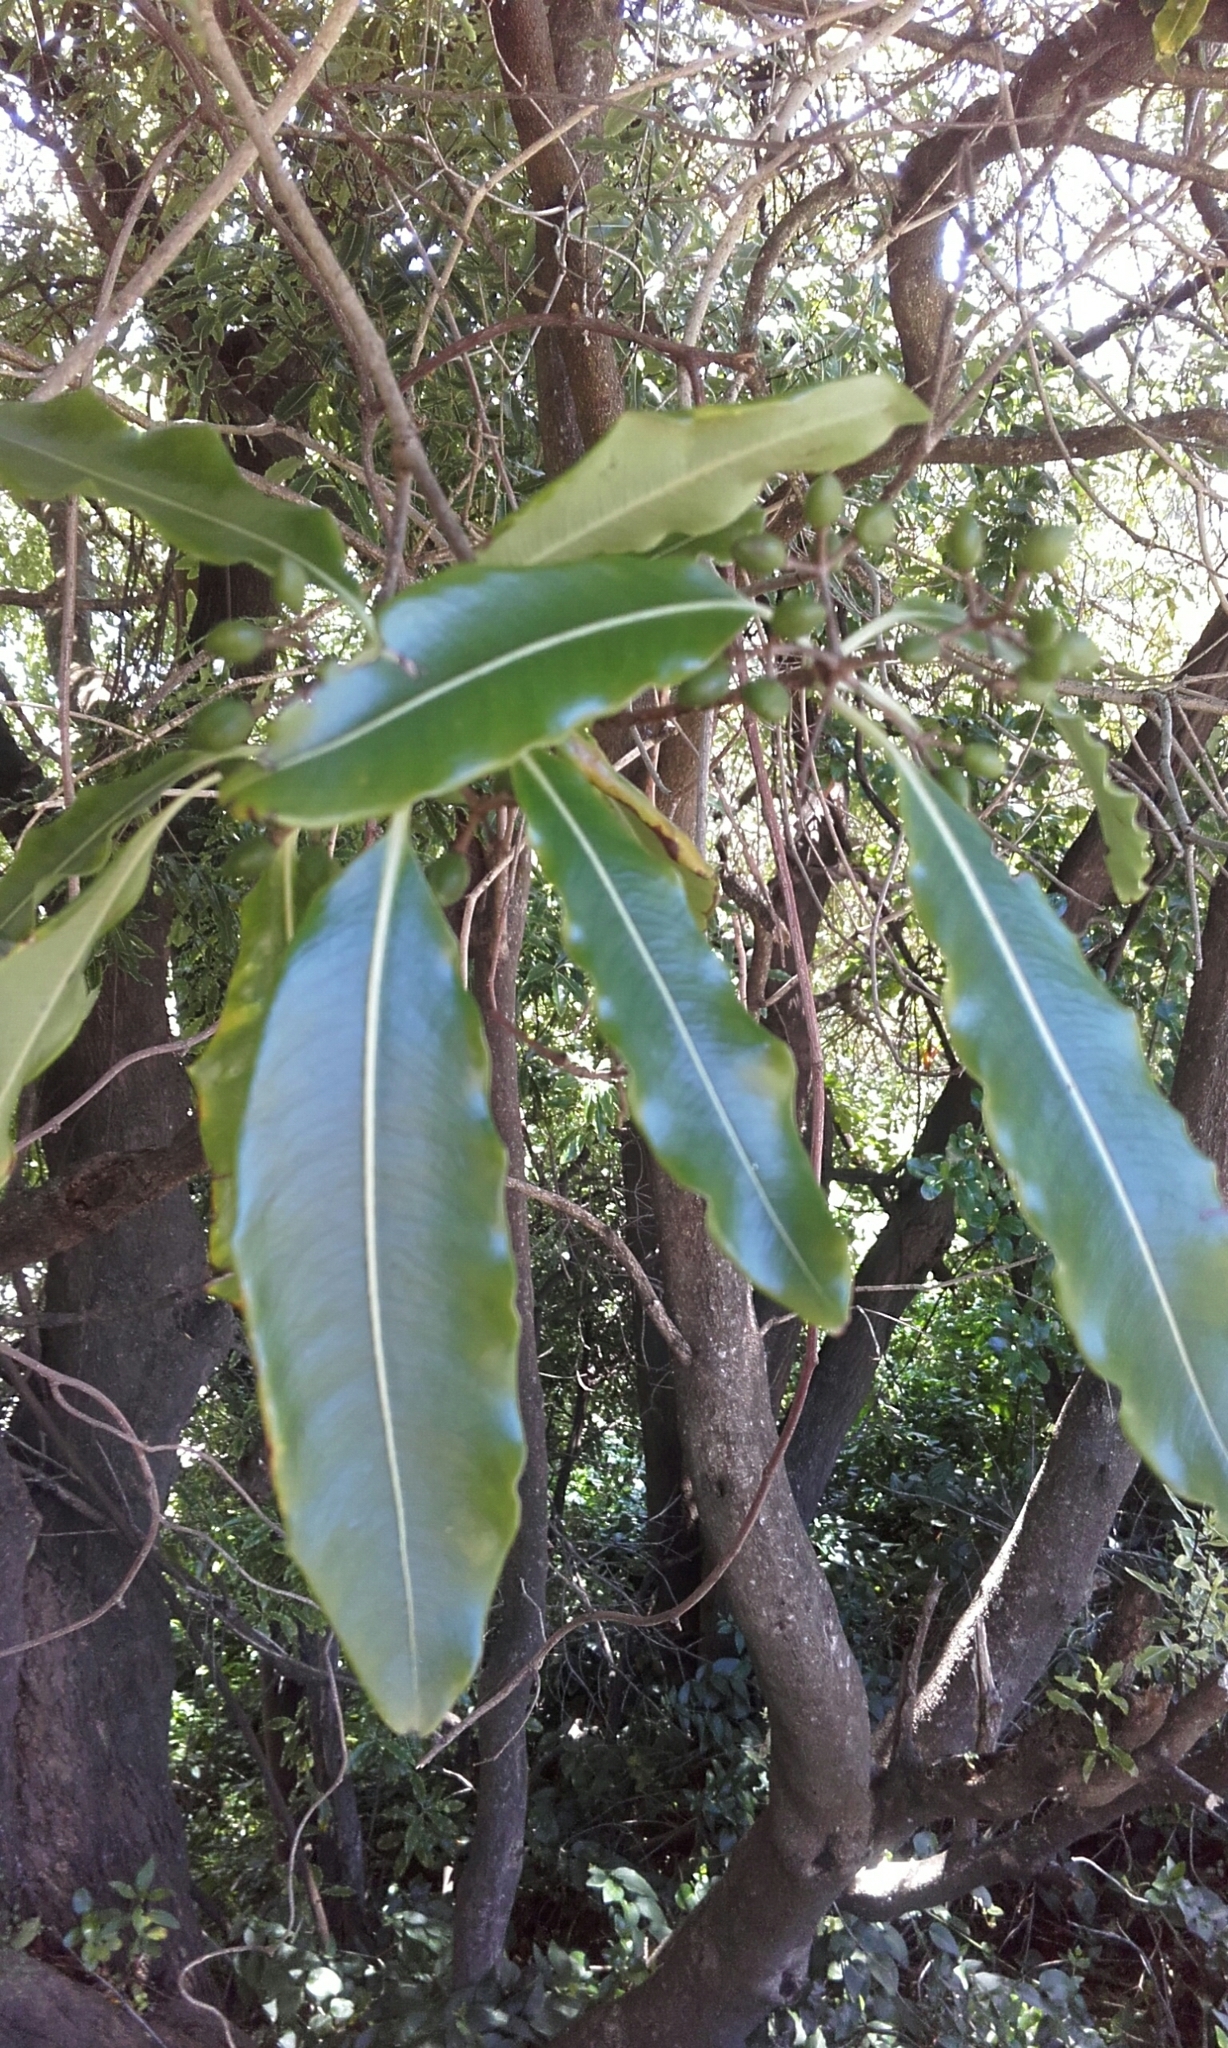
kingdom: Plantae
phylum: Tracheophyta
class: Magnoliopsida
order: Apiales
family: Pittosporaceae
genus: Pittosporum
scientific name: Pittosporum eugenioides
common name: Lemonwood
